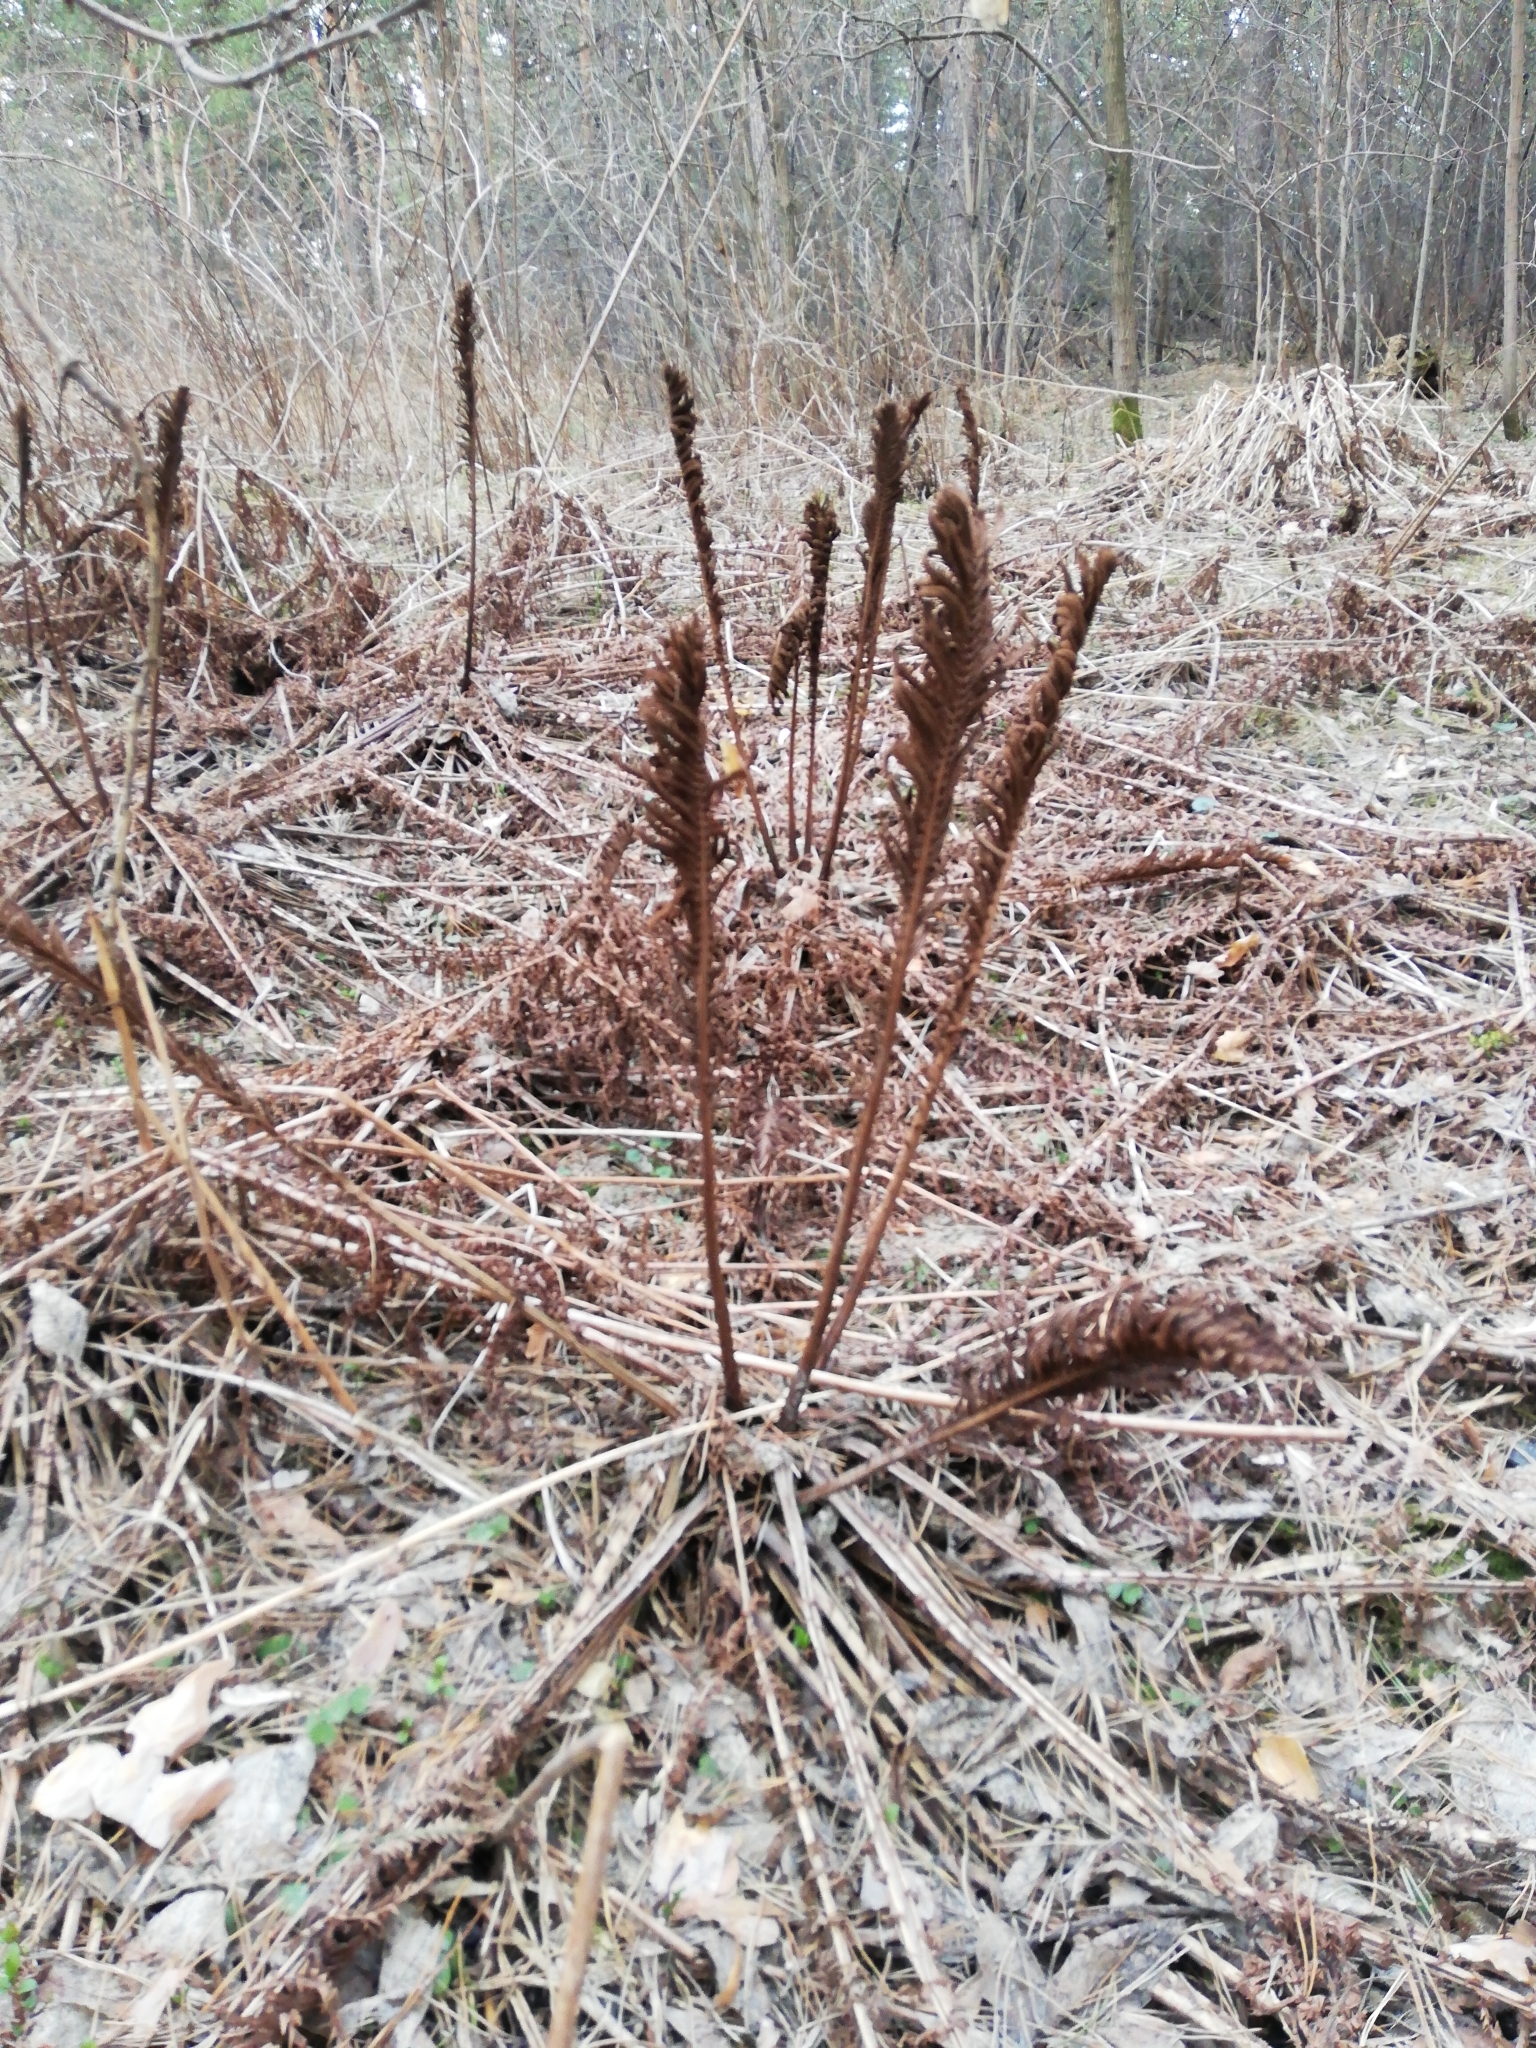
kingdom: Plantae
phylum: Tracheophyta
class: Polypodiopsida
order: Polypodiales
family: Onocleaceae
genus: Matteuccia
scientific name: Matteuccia struthiopteris
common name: Ostrich fern
